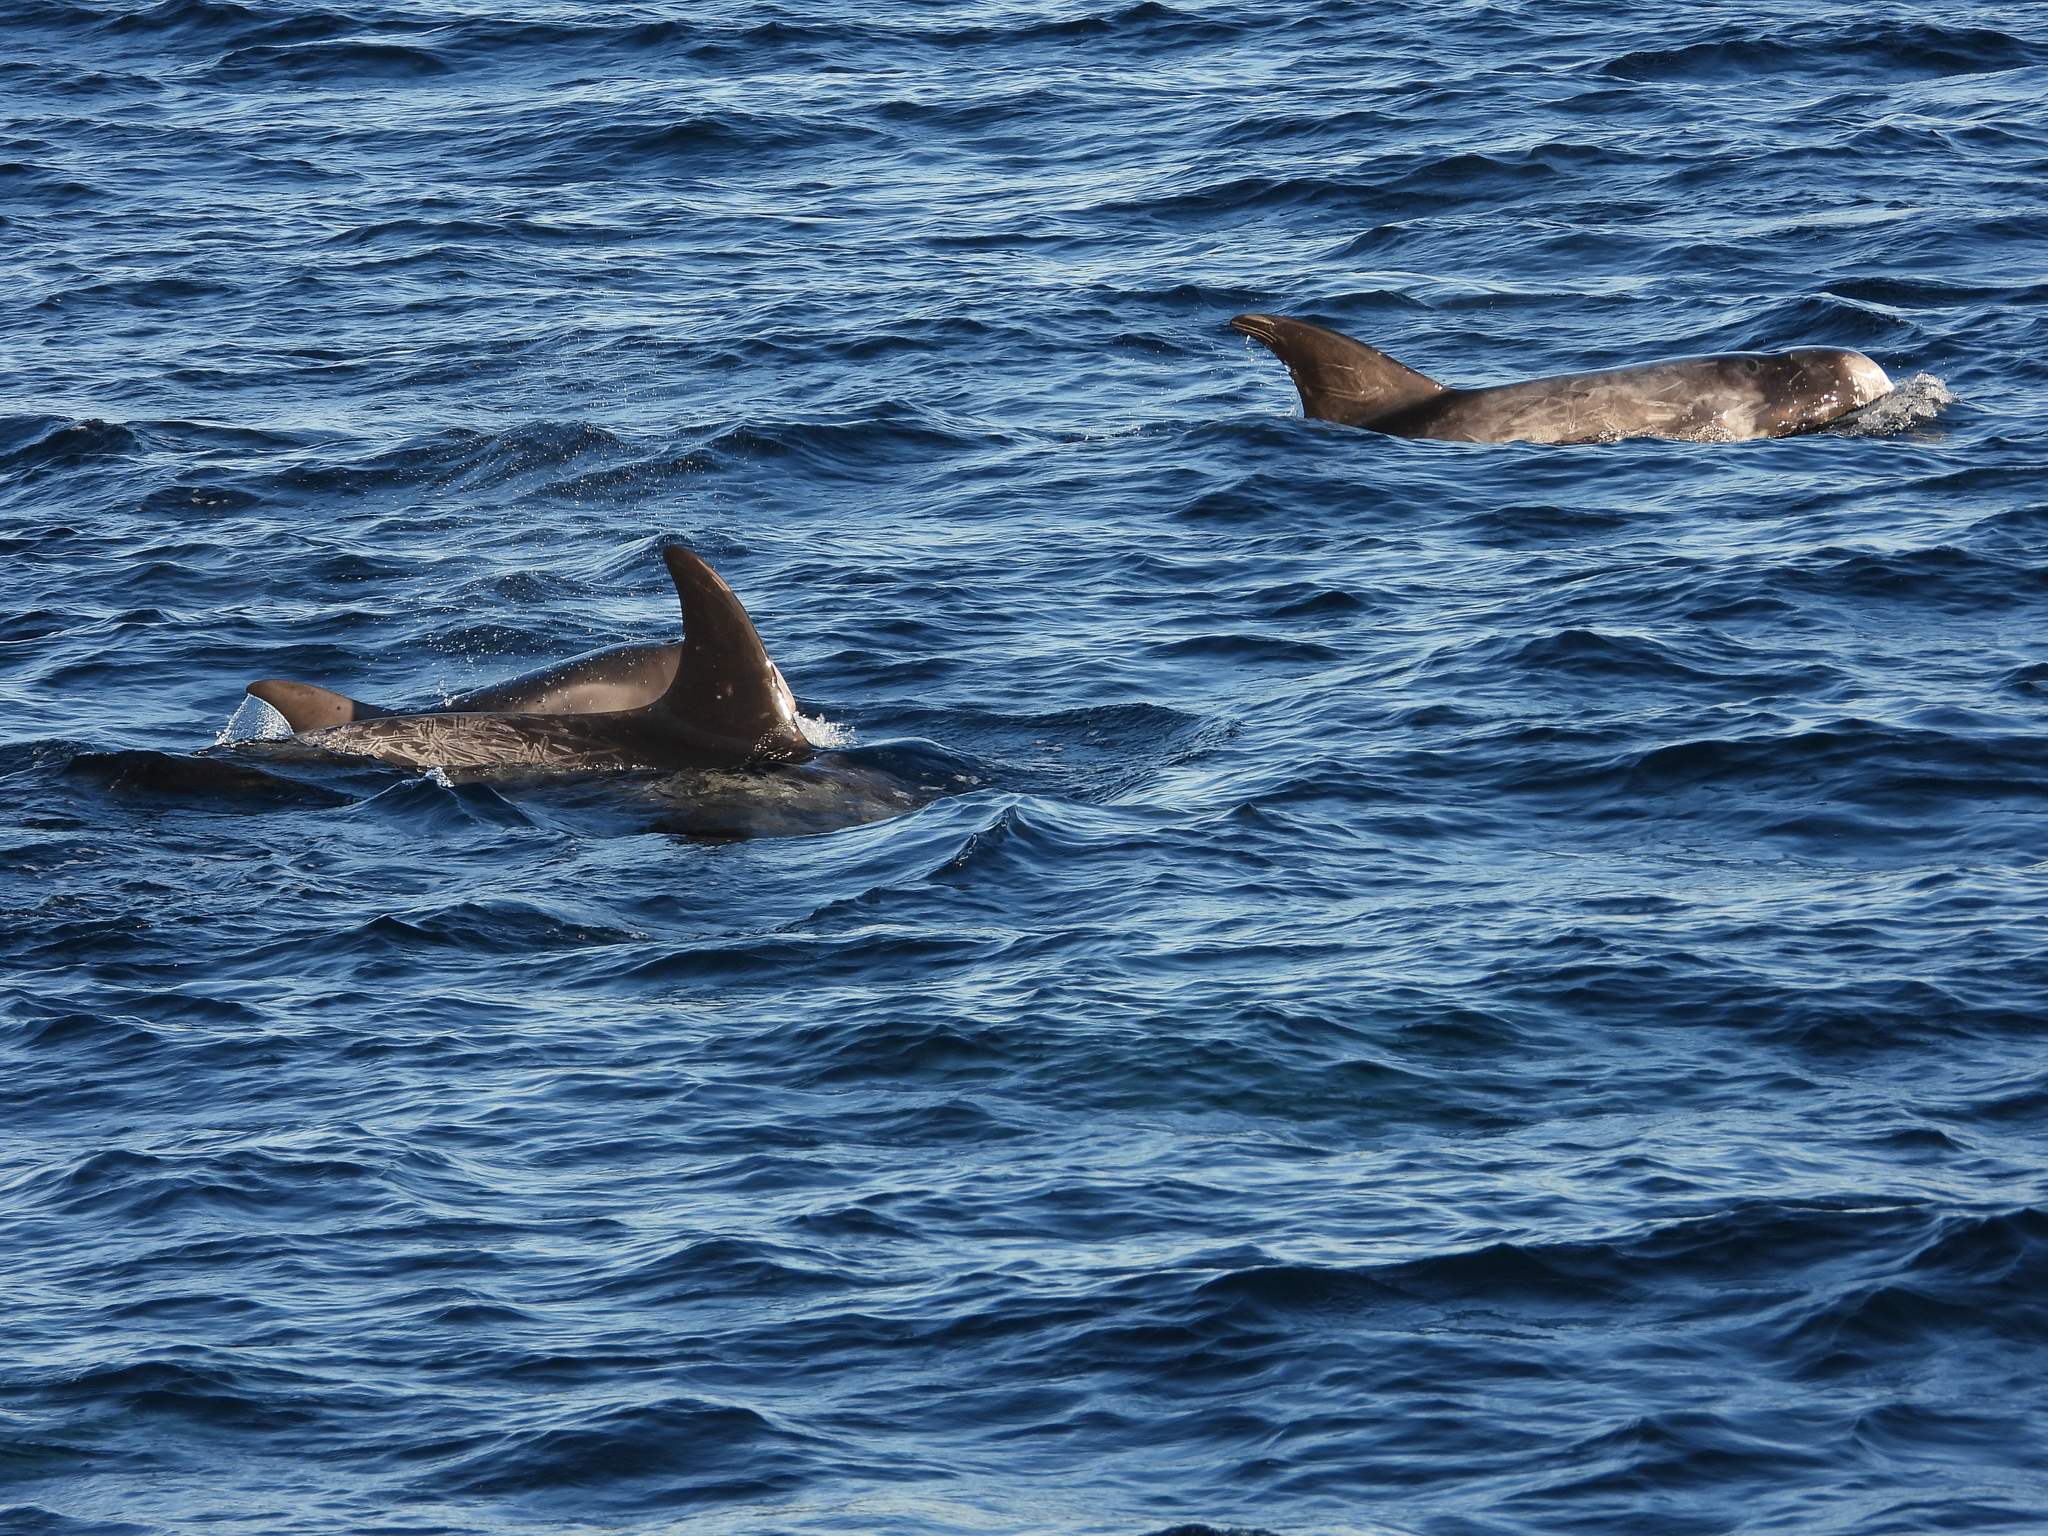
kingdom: Animalia
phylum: Chordata
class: Mammalia
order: Cetacea
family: Delphinidae
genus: Grampus
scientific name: Grampus griseus
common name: Risso's dolphin
